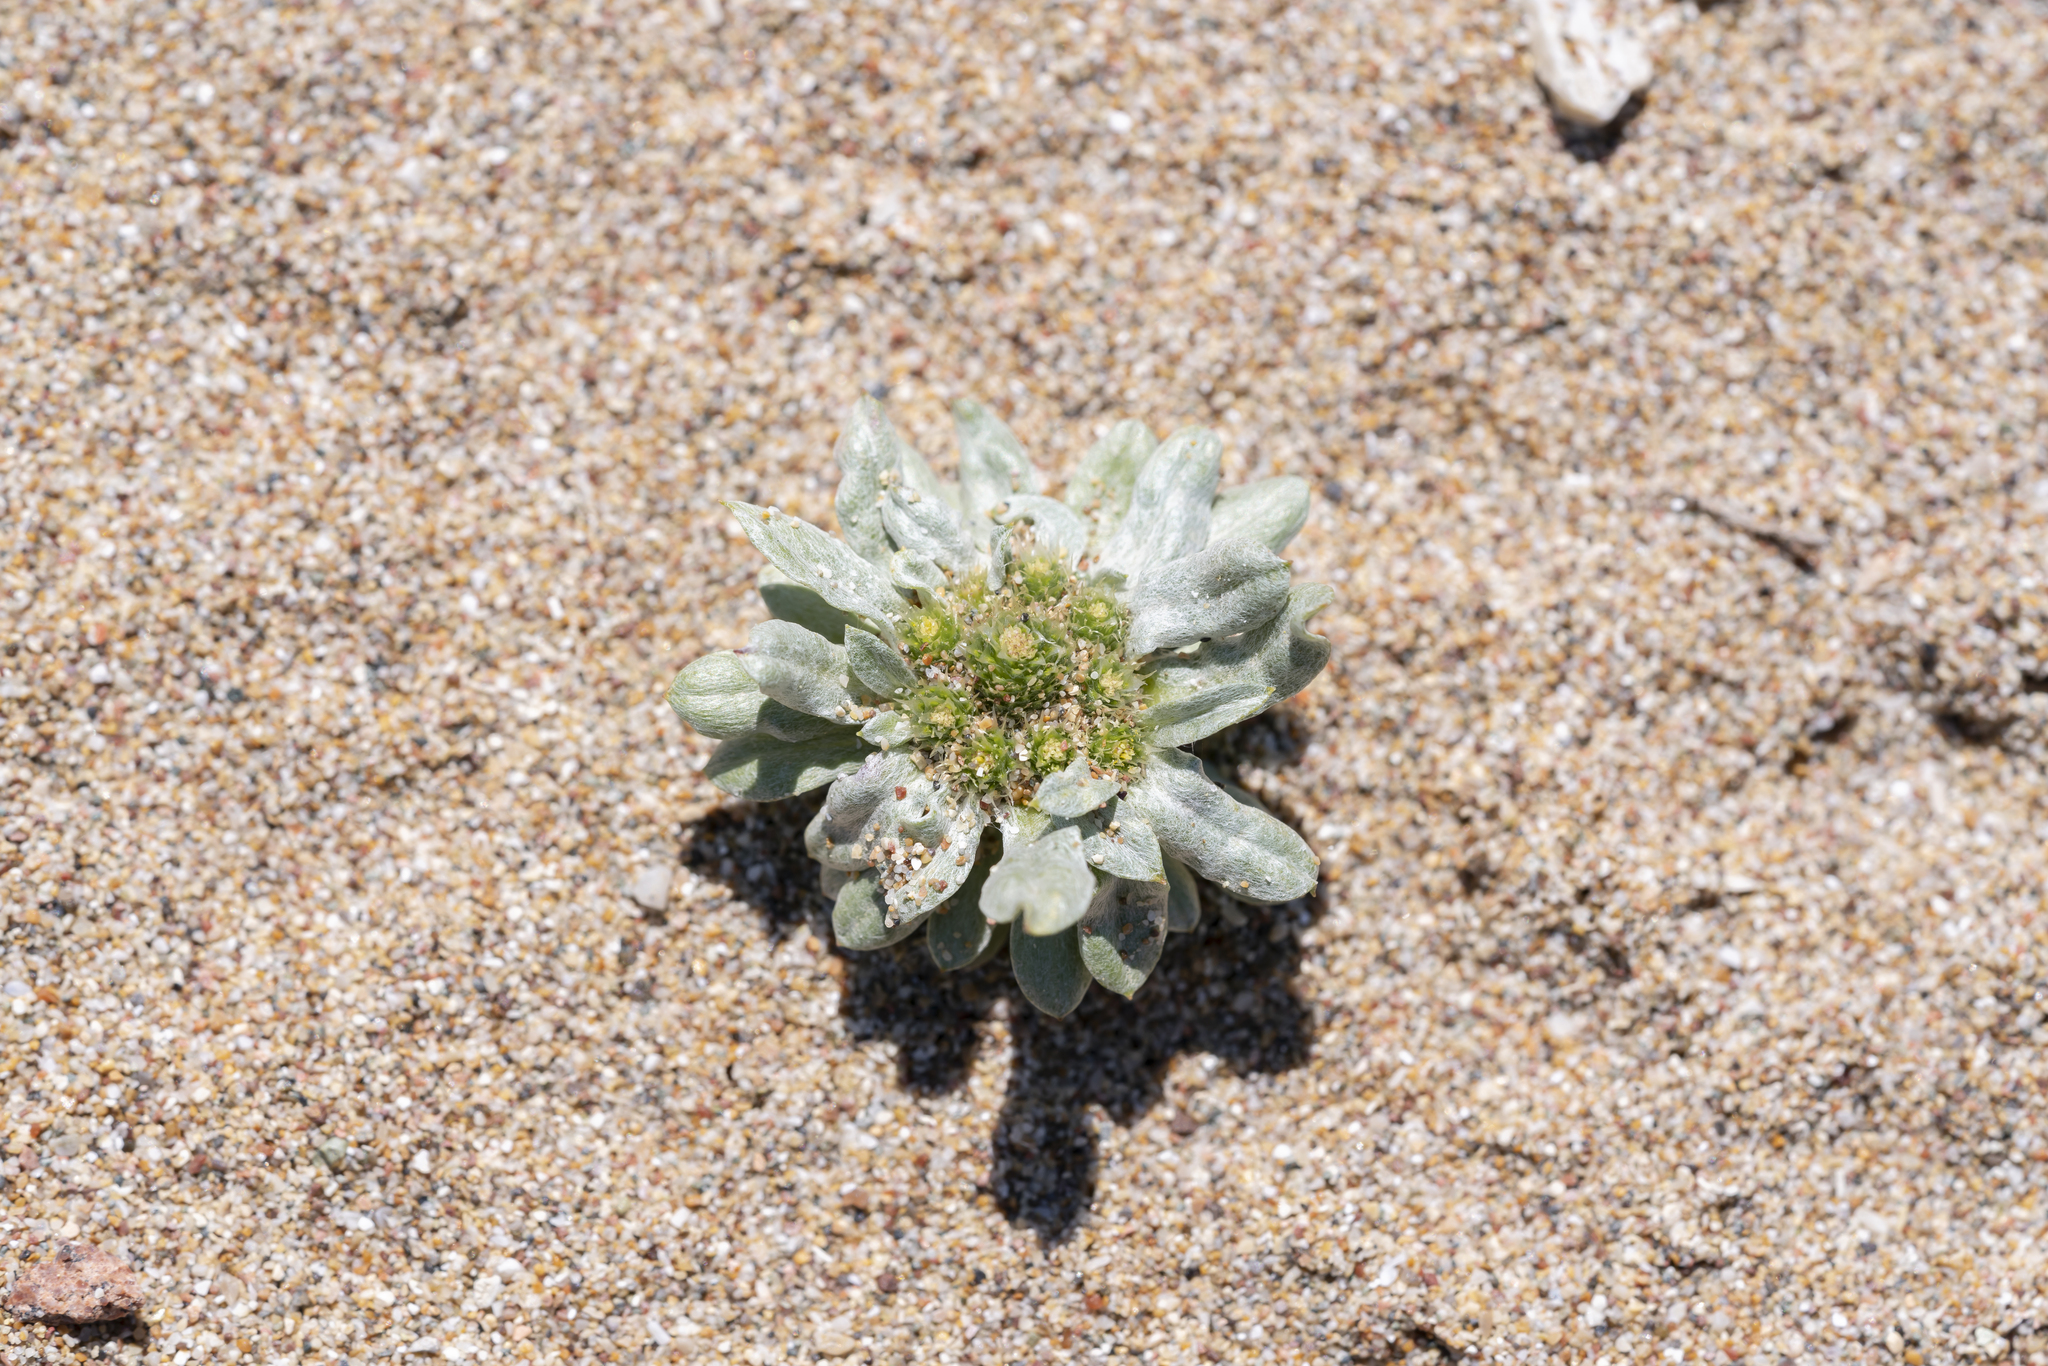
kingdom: Plantae
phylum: Tracheophyta
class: Magnoliopsida
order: Asterales
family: Asteraceae
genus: Filago
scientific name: Filago pygmaea
